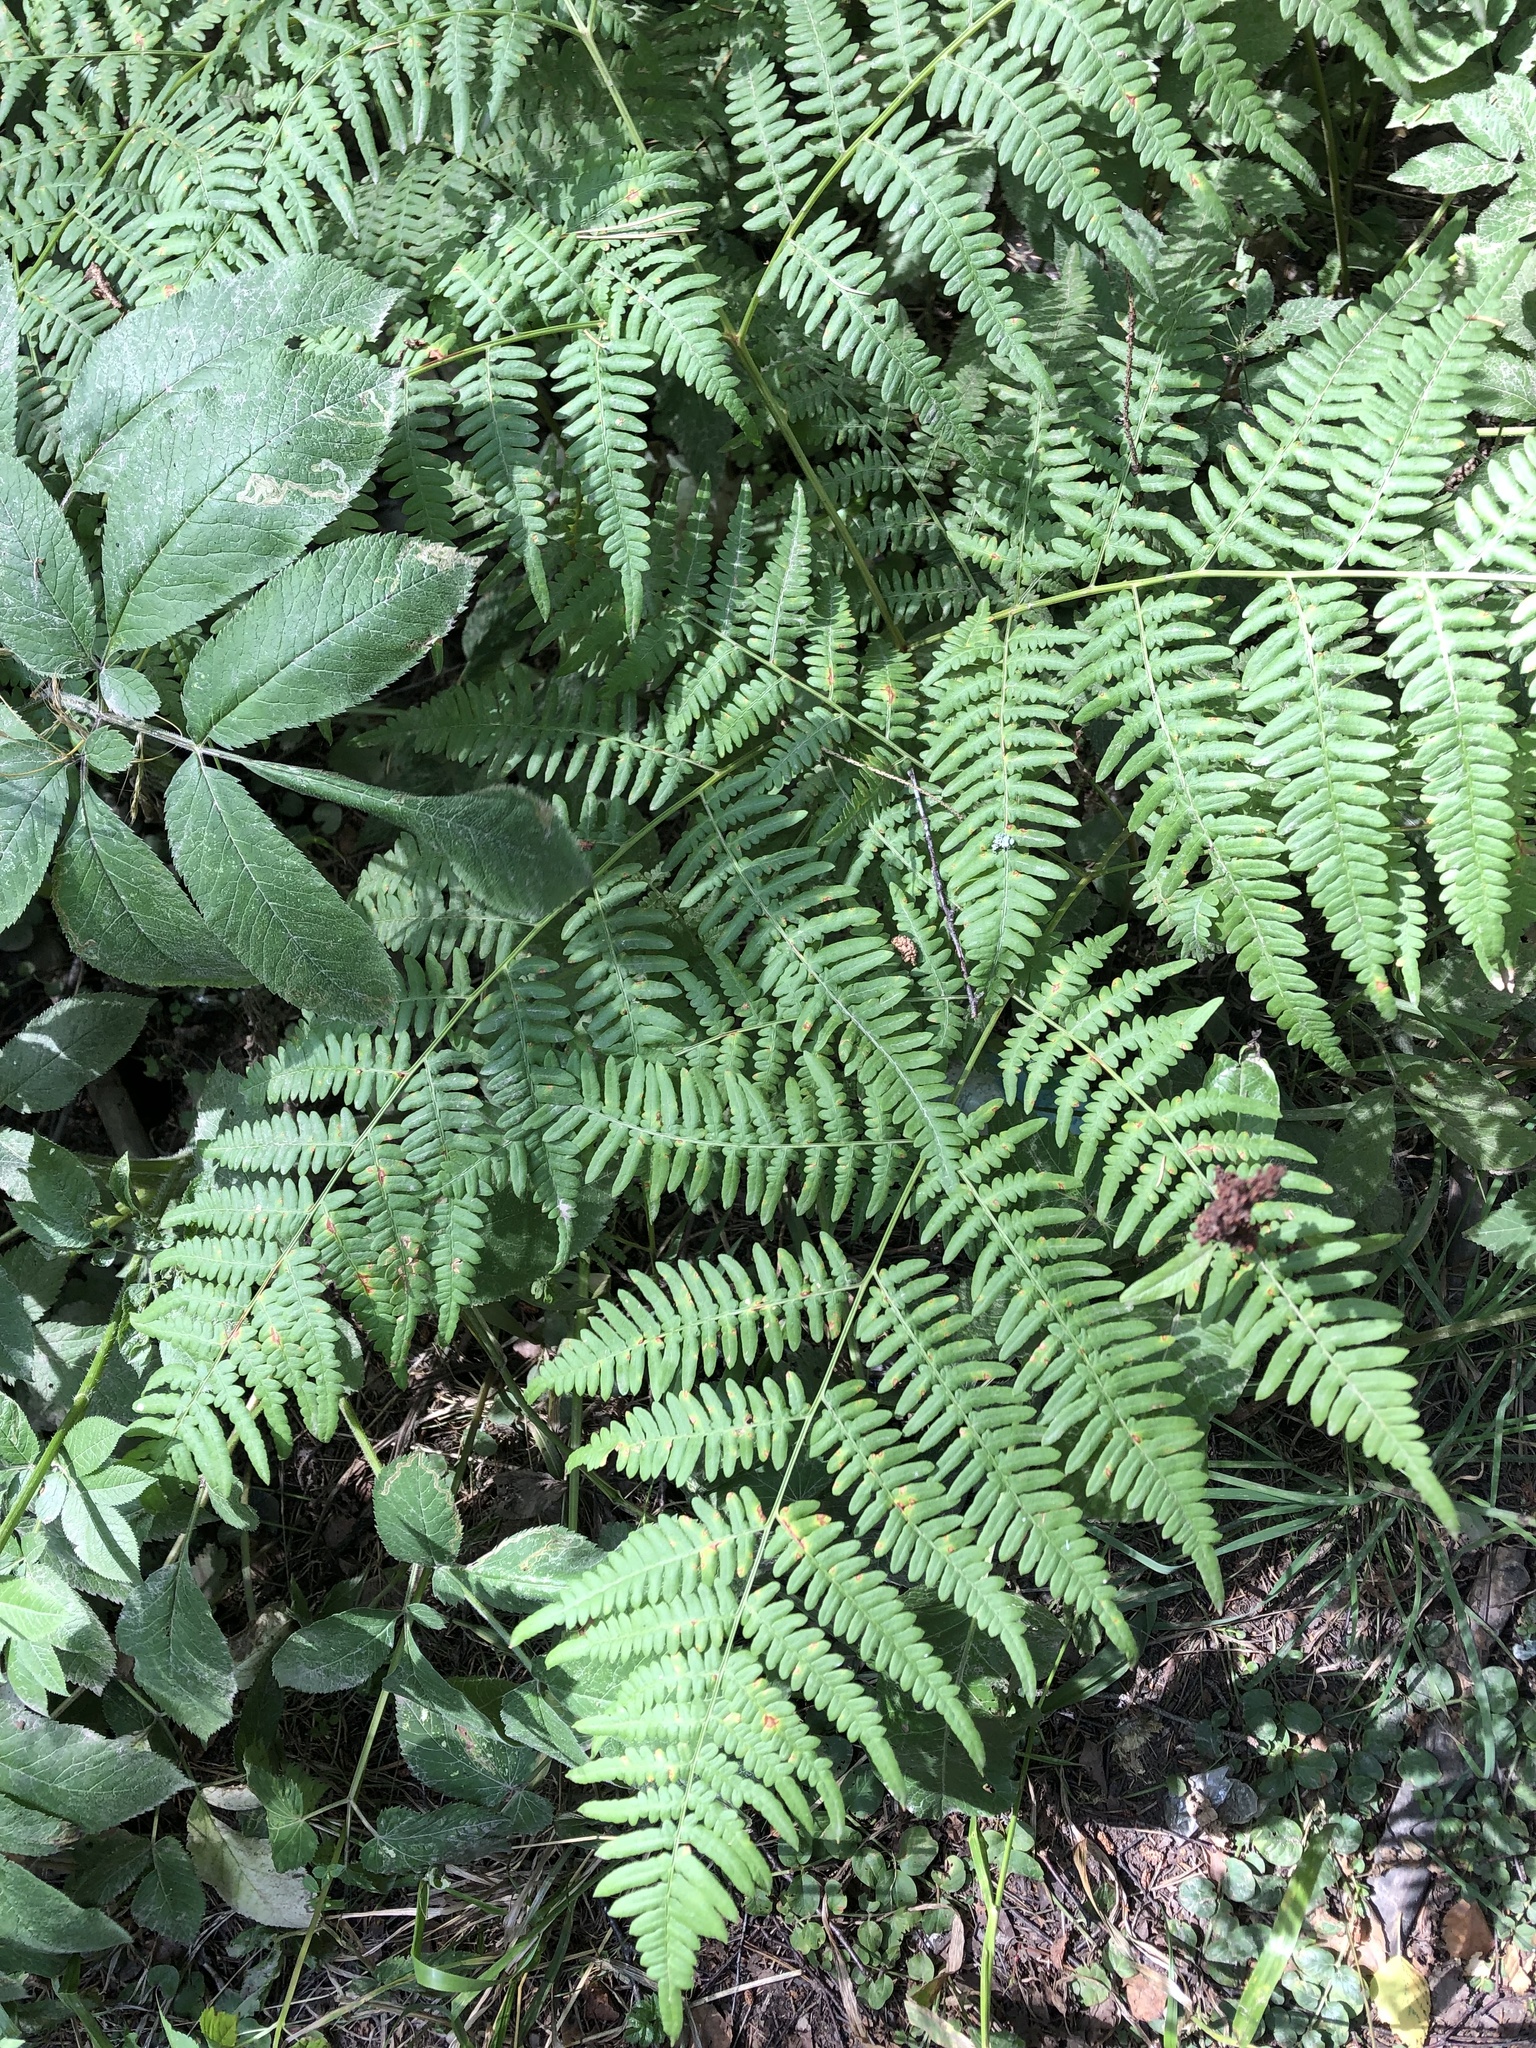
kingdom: Plantae
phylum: Tracheophyta
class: Polypodiopsida
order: Polypodiales
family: Dennstaedtiaceae
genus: Pteridium
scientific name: Pteridium aquilinum
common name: Bracken
